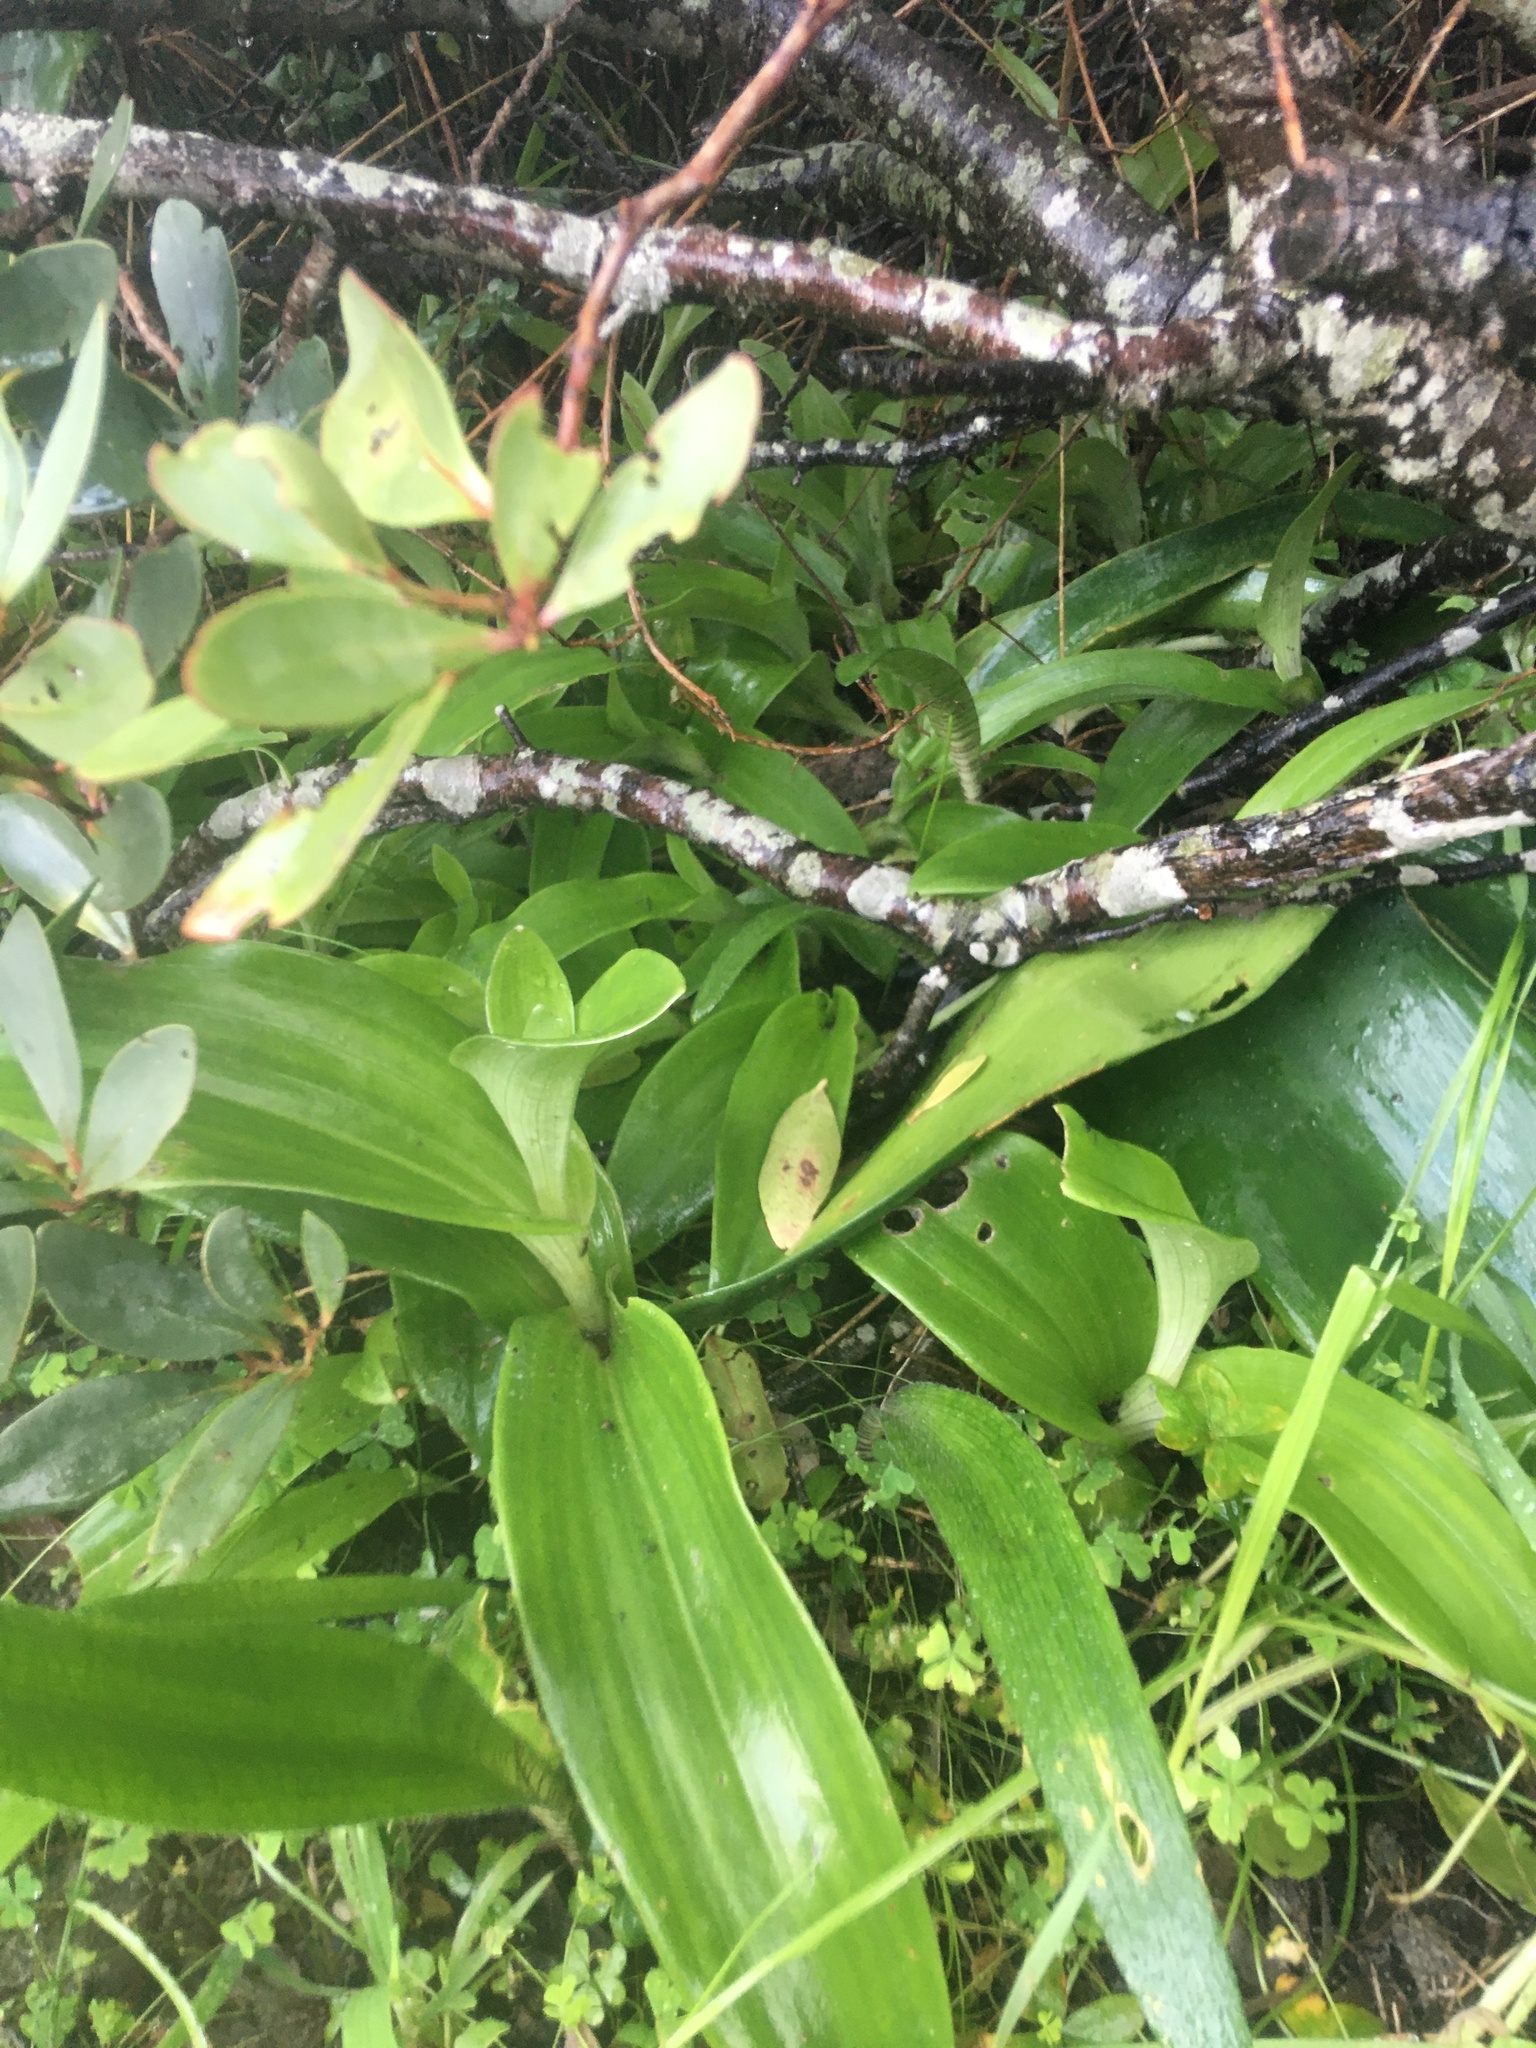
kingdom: Plantae
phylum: Tracheophyta
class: Liliopsida
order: Asparagales
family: Orchidaceae
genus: Satyrium
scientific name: Satyrium odorum
